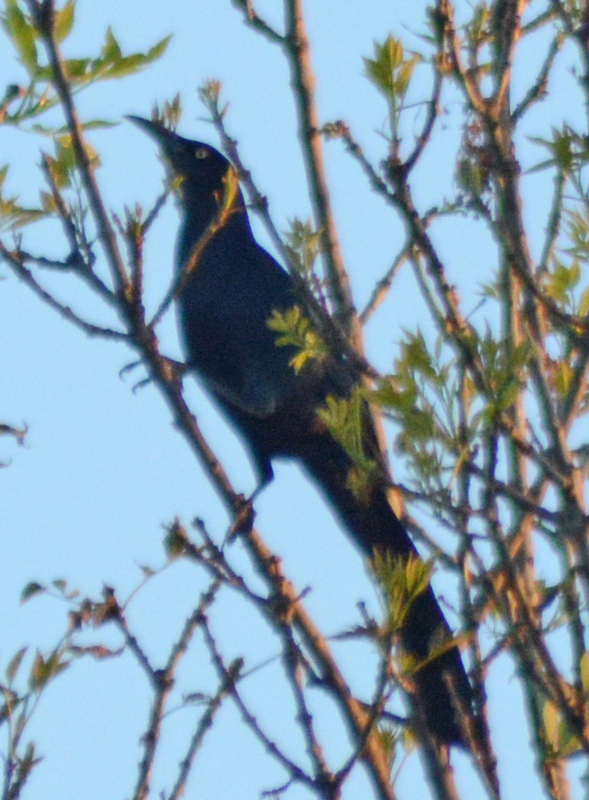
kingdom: Animalia
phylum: Chordata
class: Aves
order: Passeriformes
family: Icteridae
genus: Quiscalus
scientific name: Quiscalus mexicanus
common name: Great-tailed grackle
